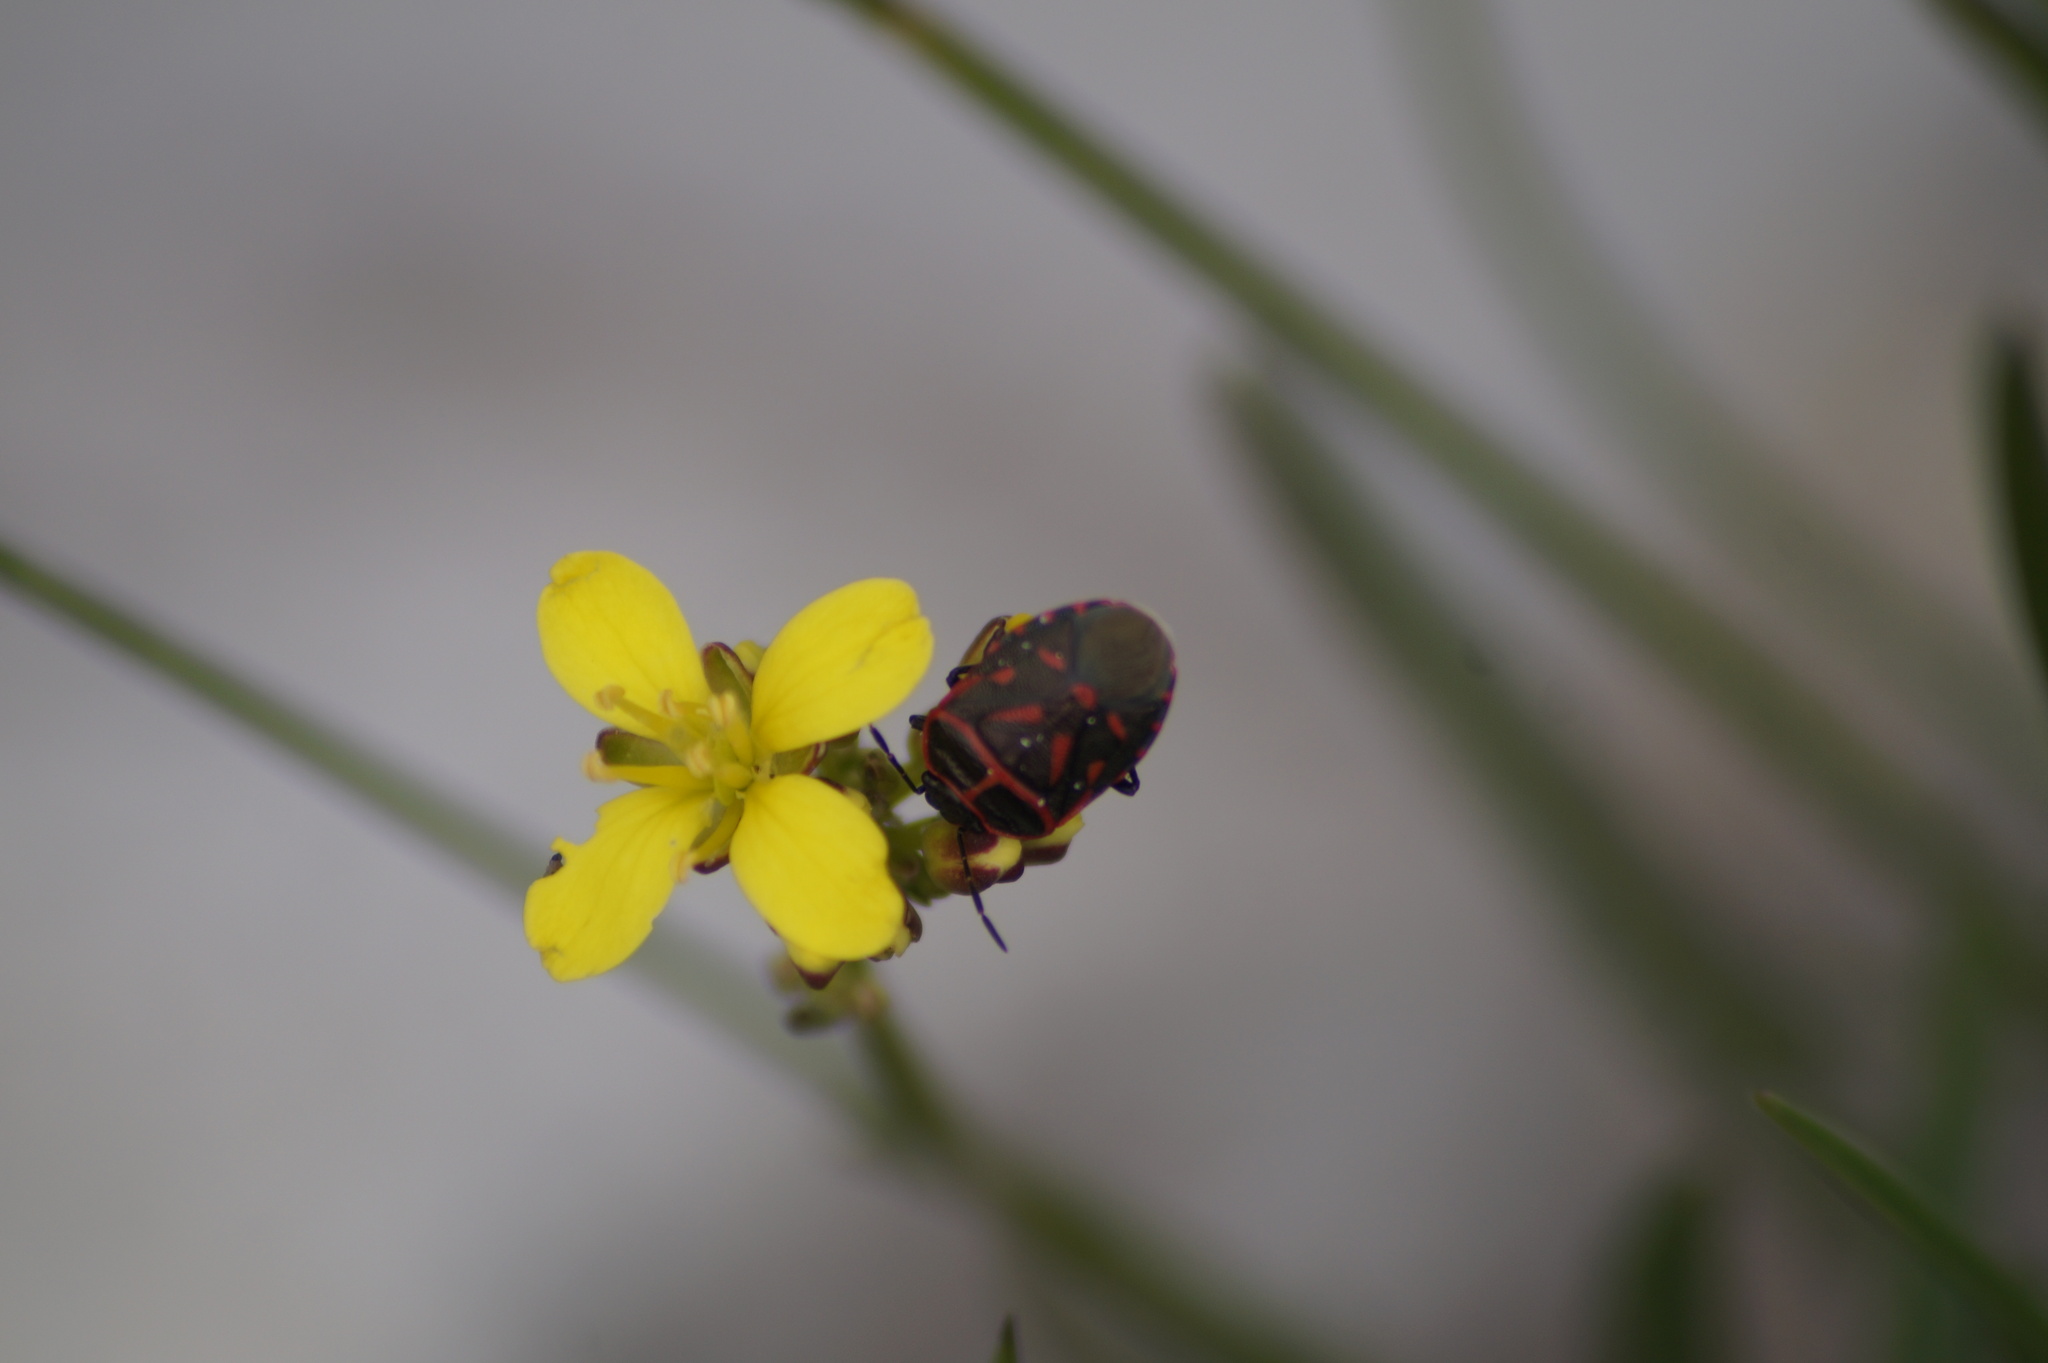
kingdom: Animalia
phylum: Arthropoda
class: Insecta
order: Hemiptera
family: Pentatomidae
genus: Eurydema
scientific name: Eurydema rotundicollis
